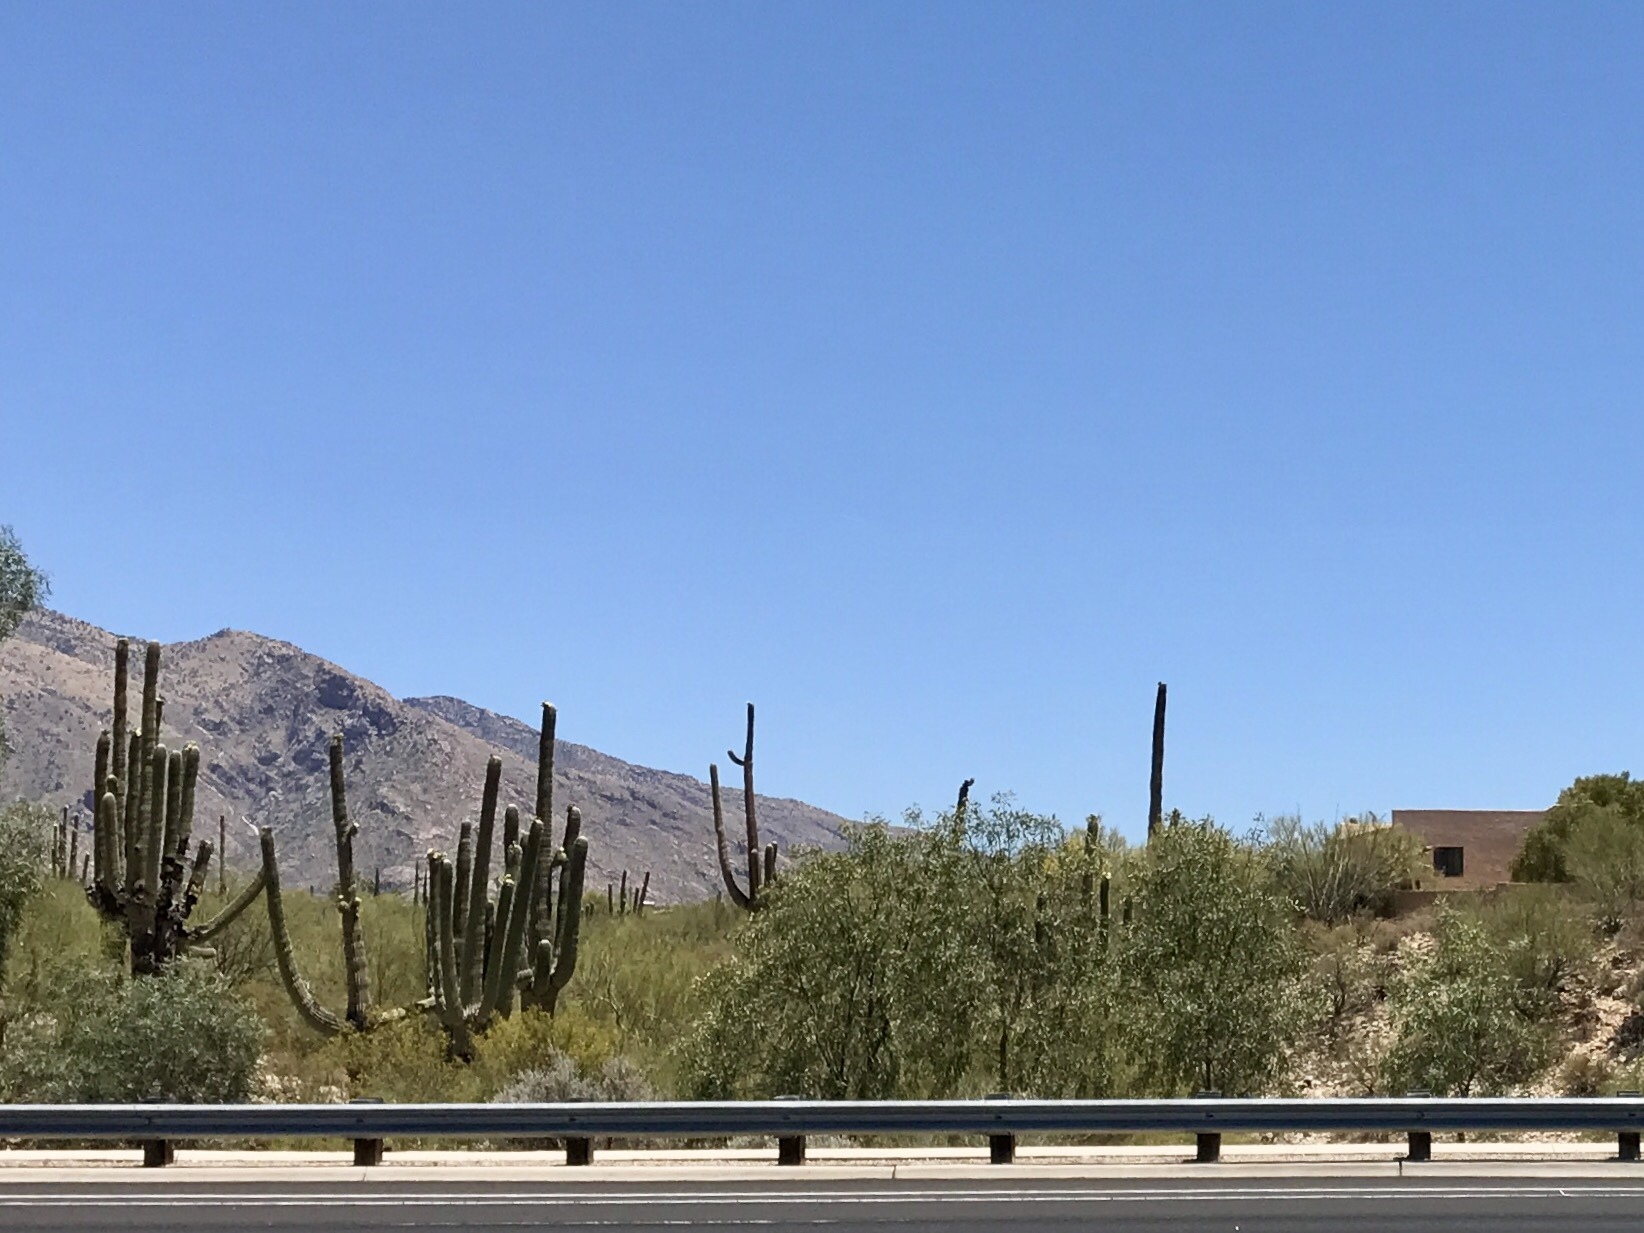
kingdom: Plantae
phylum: Tracheophyta
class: Magnoliopsida
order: Caryophyllales
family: Cactaceae
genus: Carnegiea
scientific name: Carnegiea gigantea
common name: Saguaro
